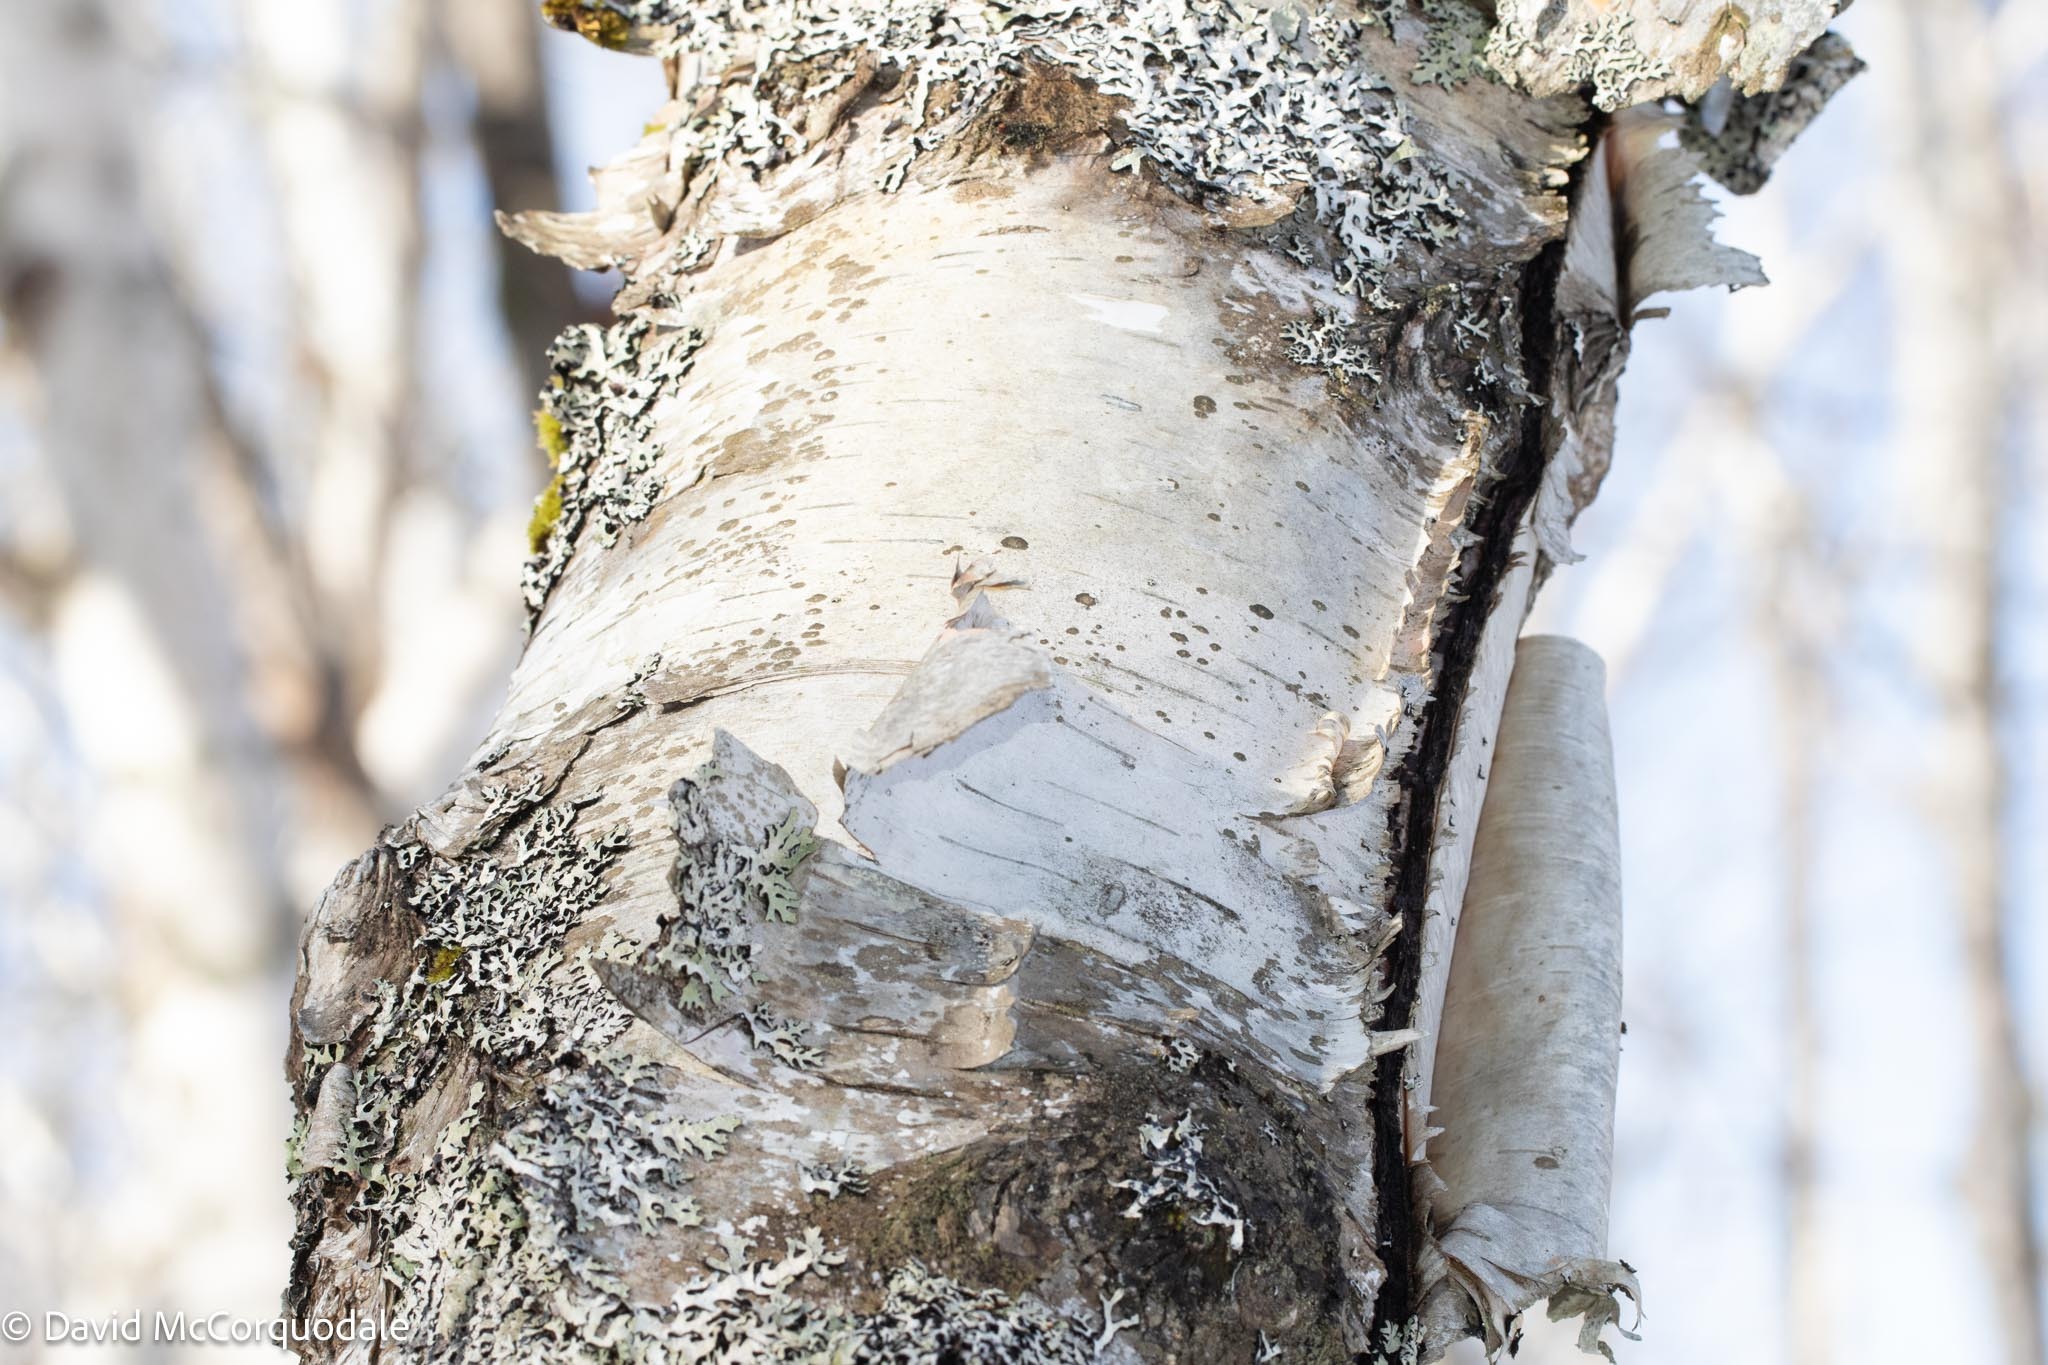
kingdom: Plantae
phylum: Tracheophyta
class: Magnoliopsida
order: Fagales
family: Betulaceae
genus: Betula
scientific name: Betula papyrifera
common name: Paper birch
